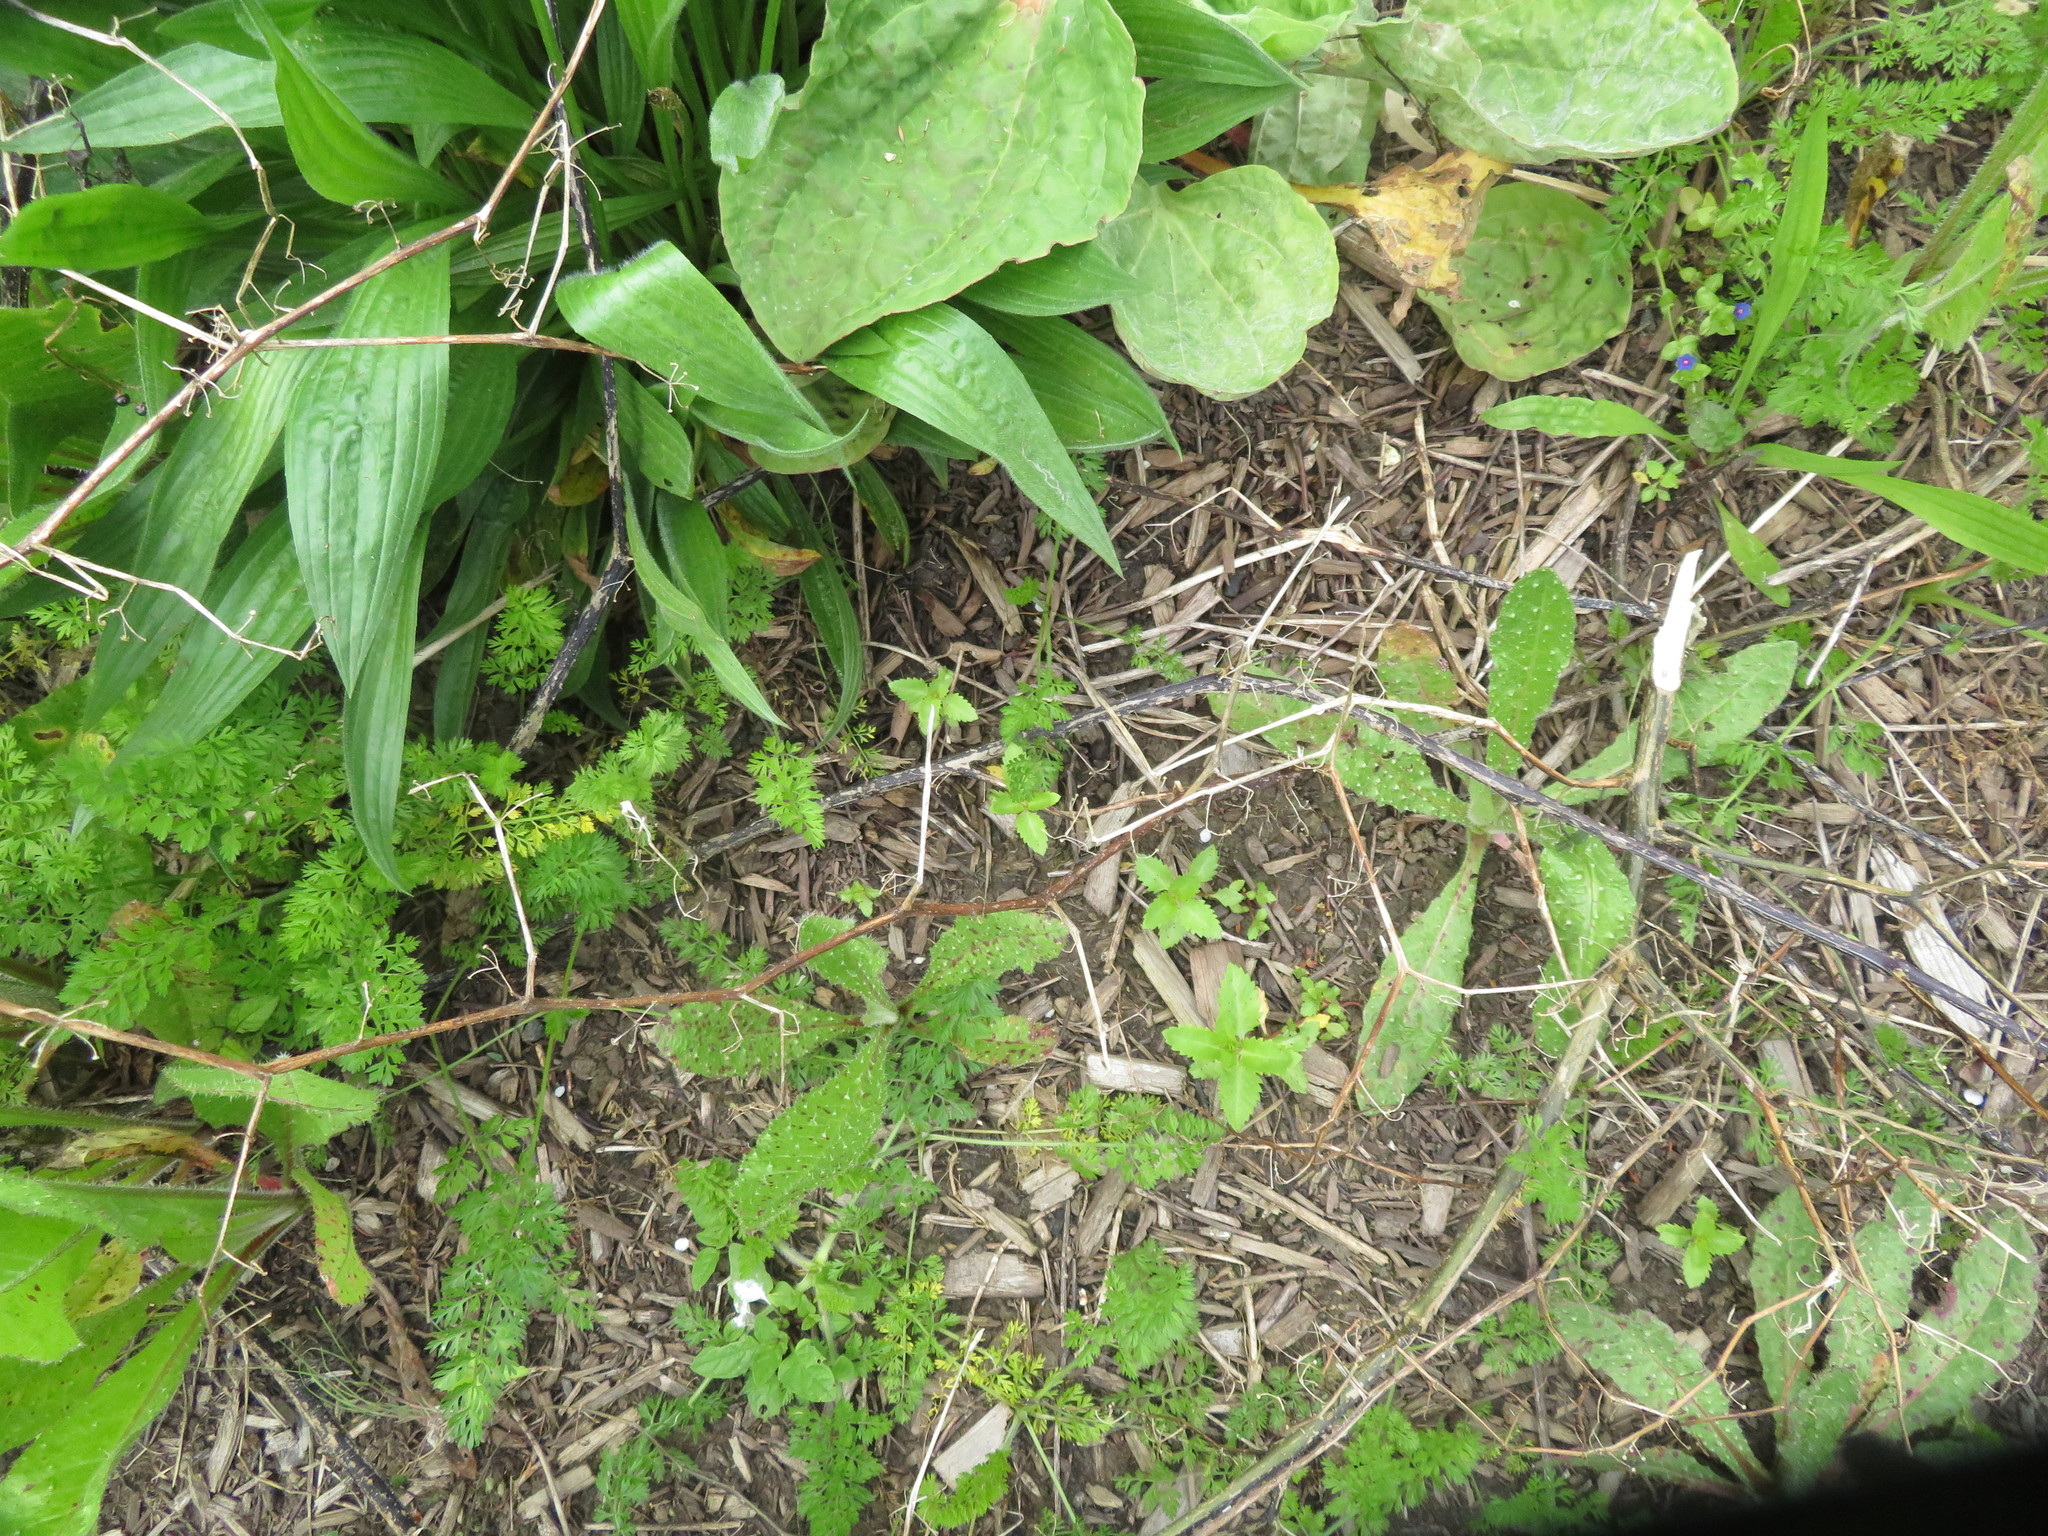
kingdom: Plantae
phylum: Tracheophyta
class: Magnoliopsida
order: Saxifragales
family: Haloragaceae
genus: Haloragis
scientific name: Haloragis erecta
